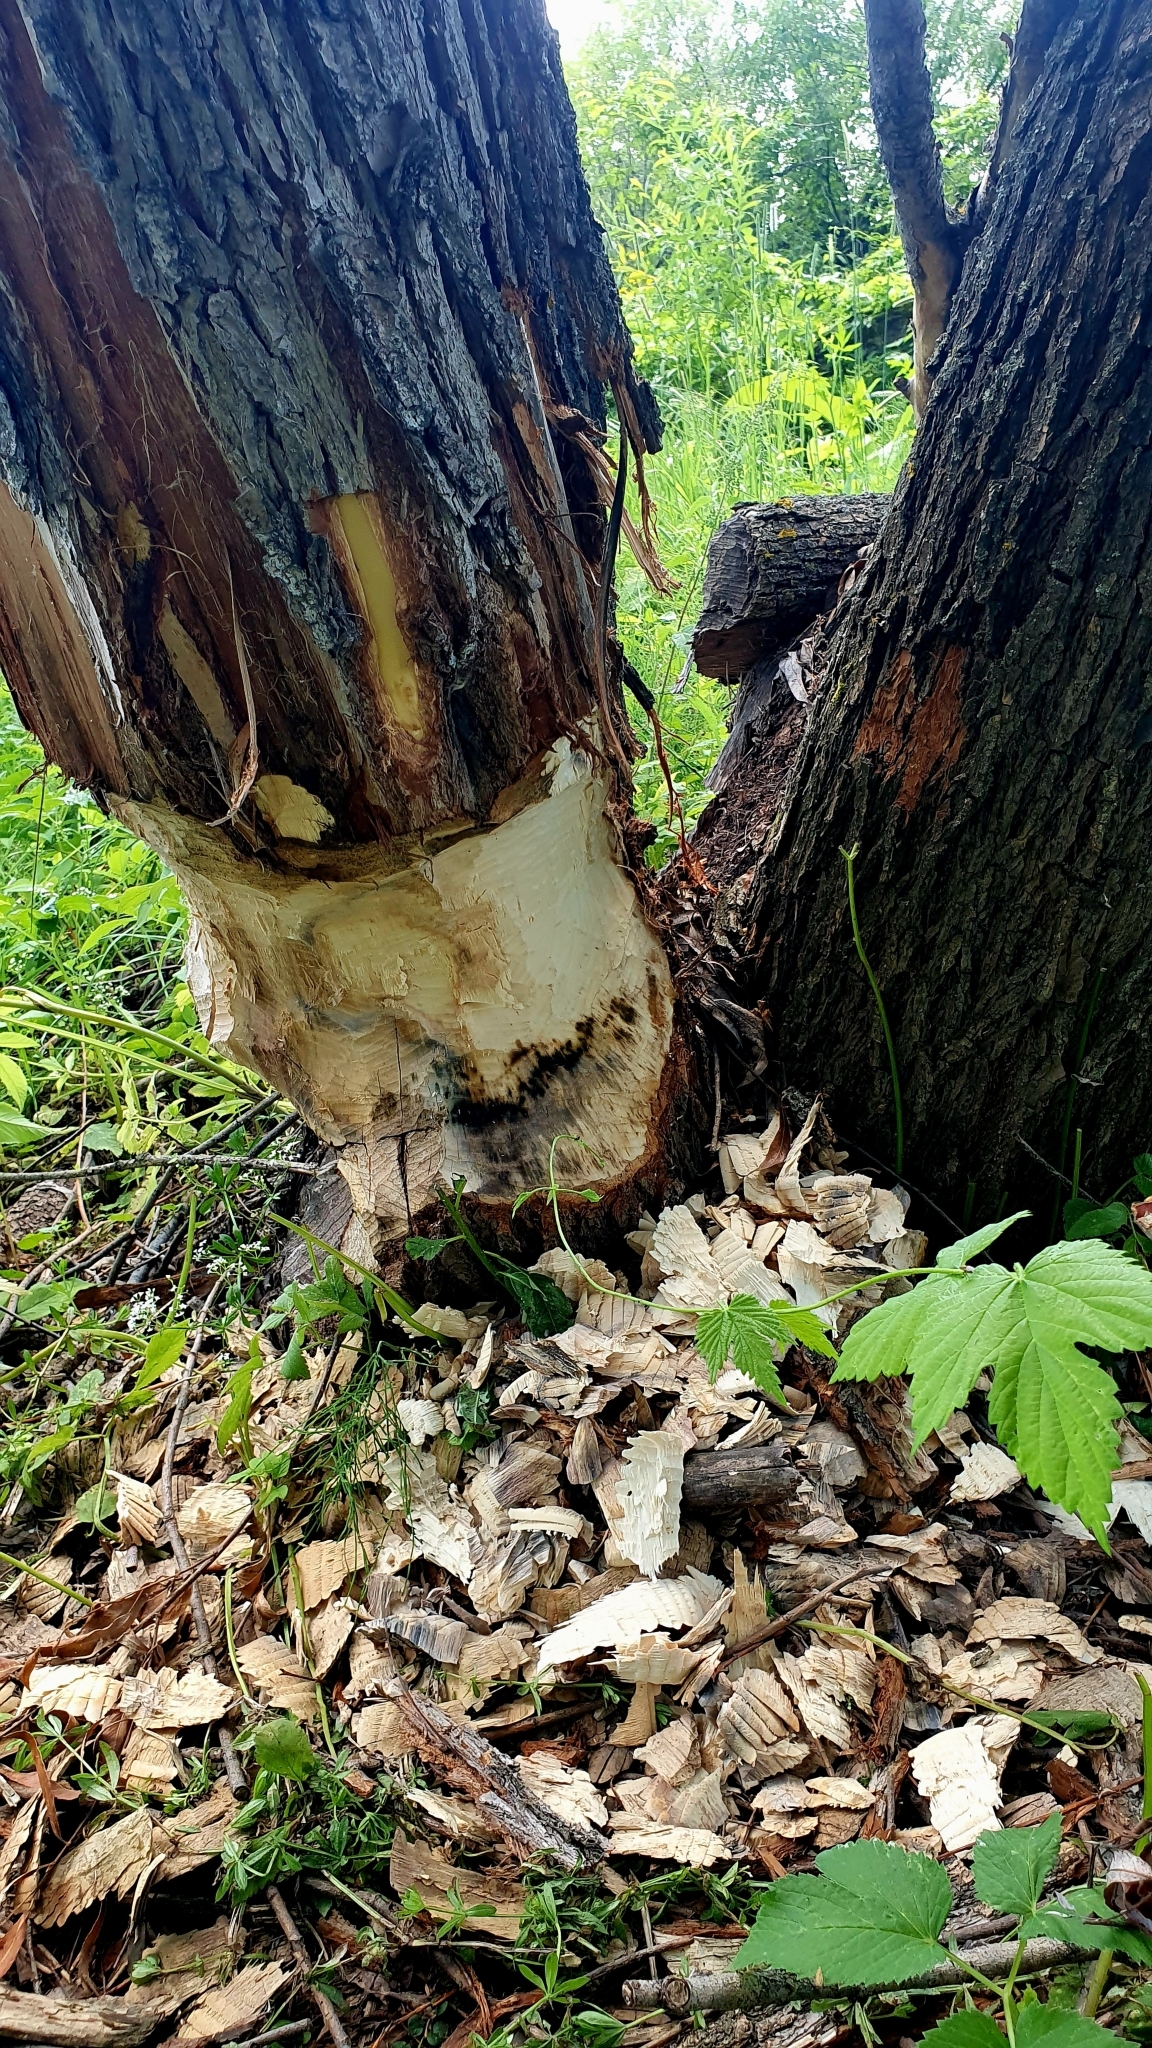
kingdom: Animalia
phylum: Chordata
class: Mammalia
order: Rodentia
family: Castoridae
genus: Castor
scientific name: Castor fiber
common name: Eurasian beaver
